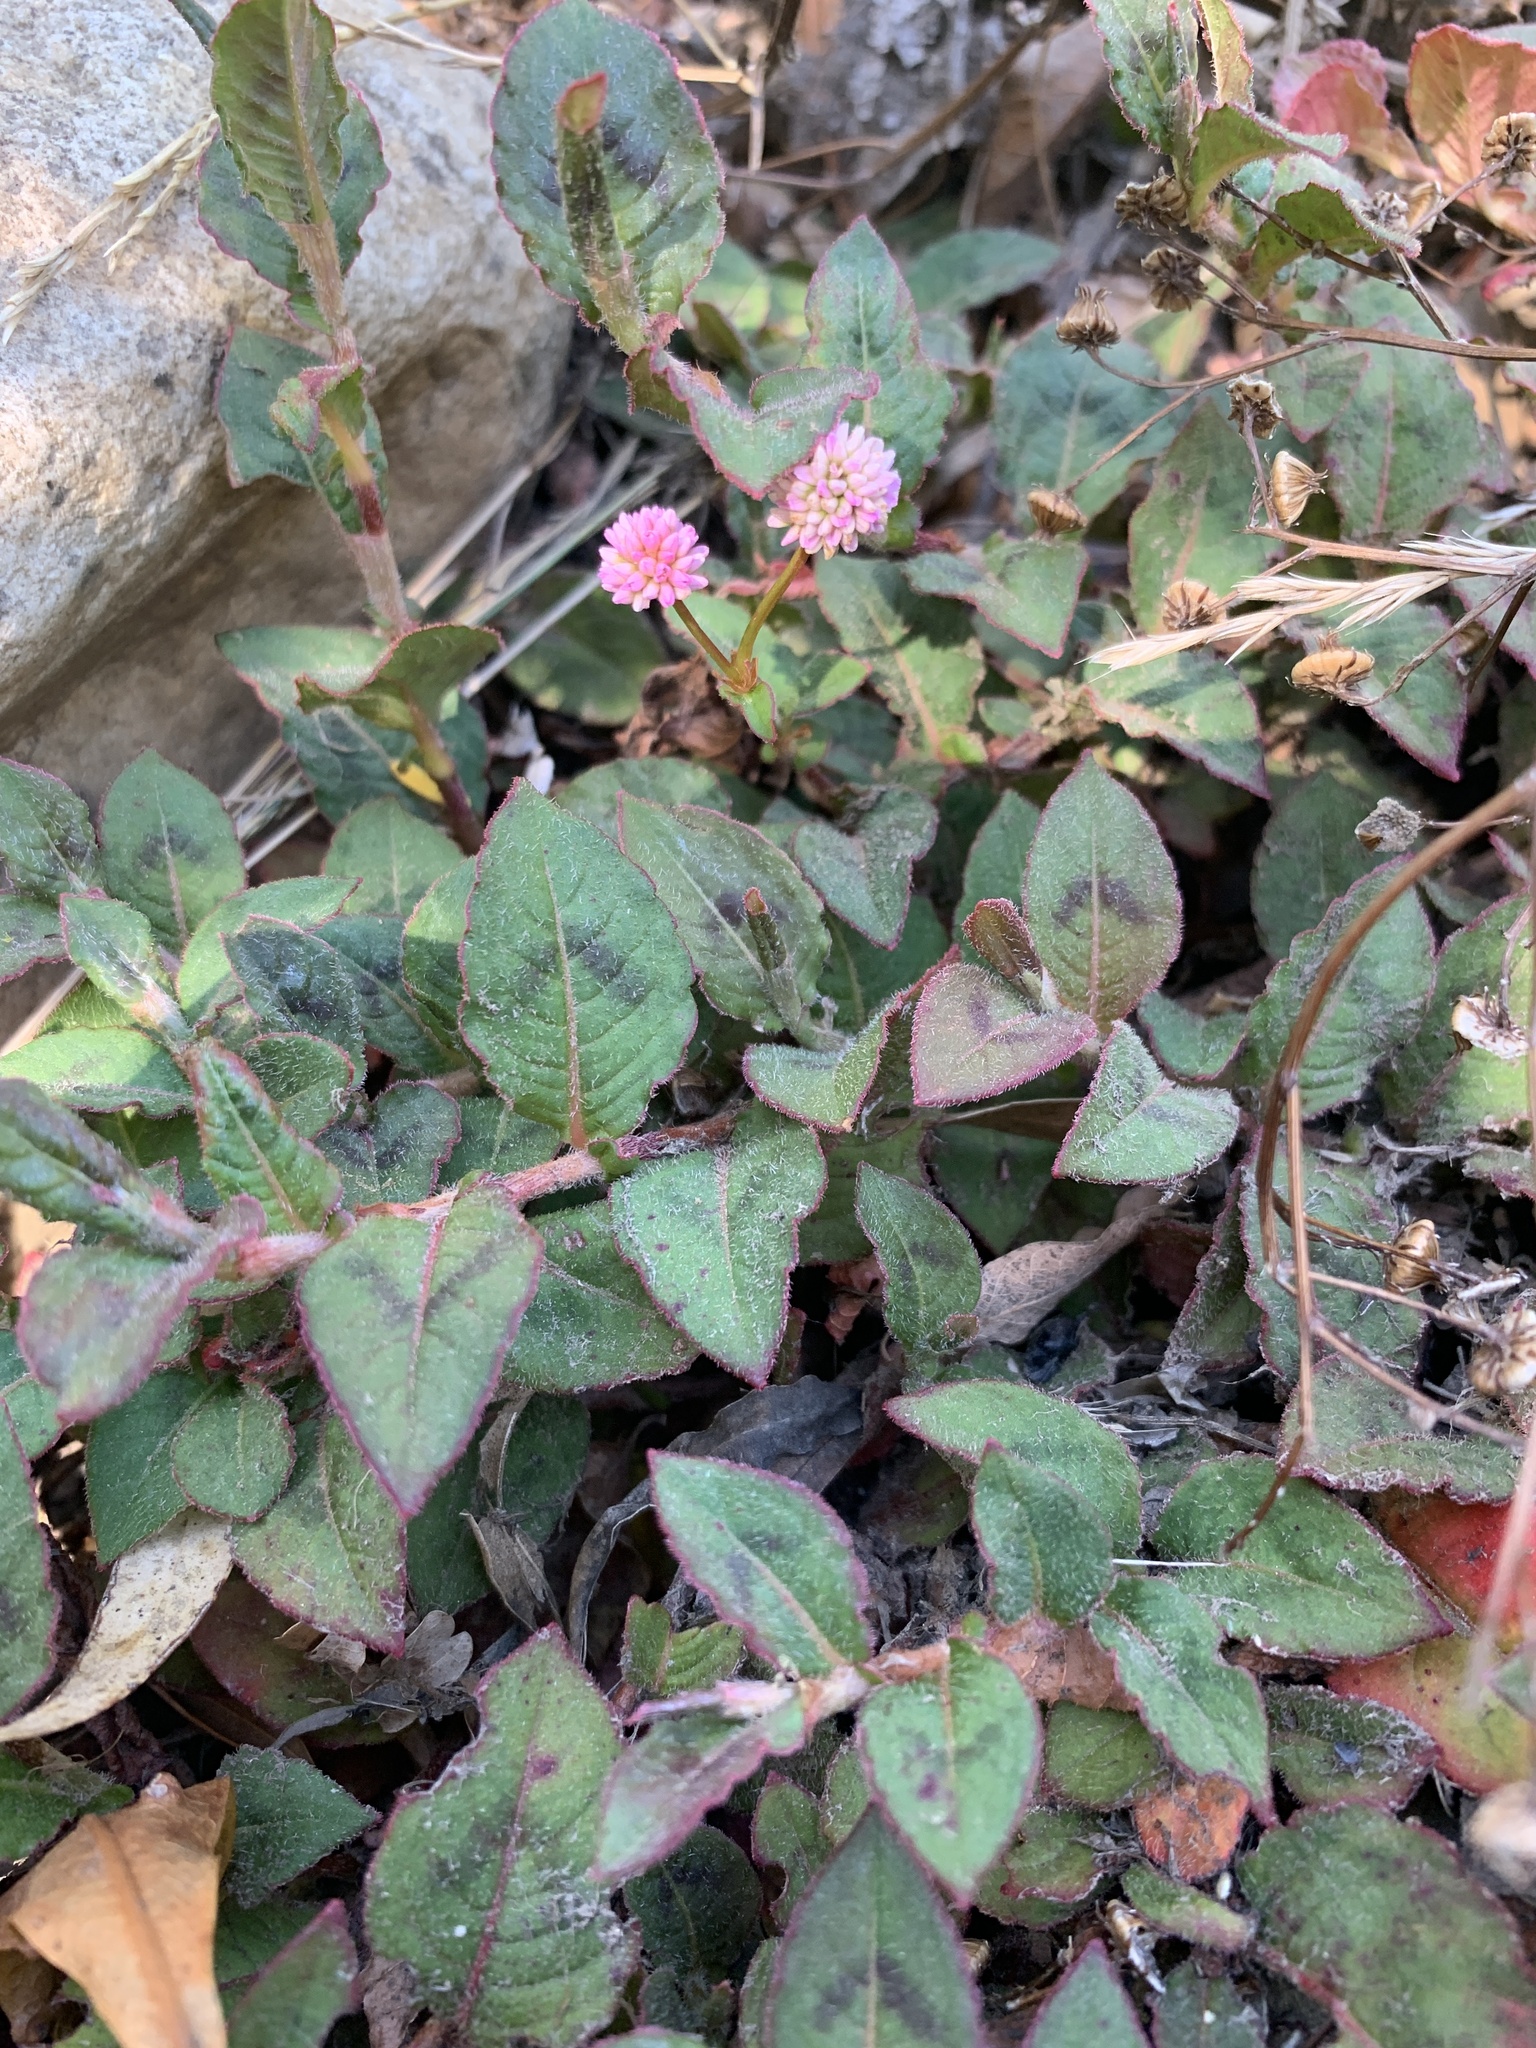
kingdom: Plantae
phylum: Tracheophyta
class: Magnoliopsida
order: Caryophyllales
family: Polygonaceae
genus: Persicaria
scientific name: Persicaria capitata
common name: Pinkhead smartweed
